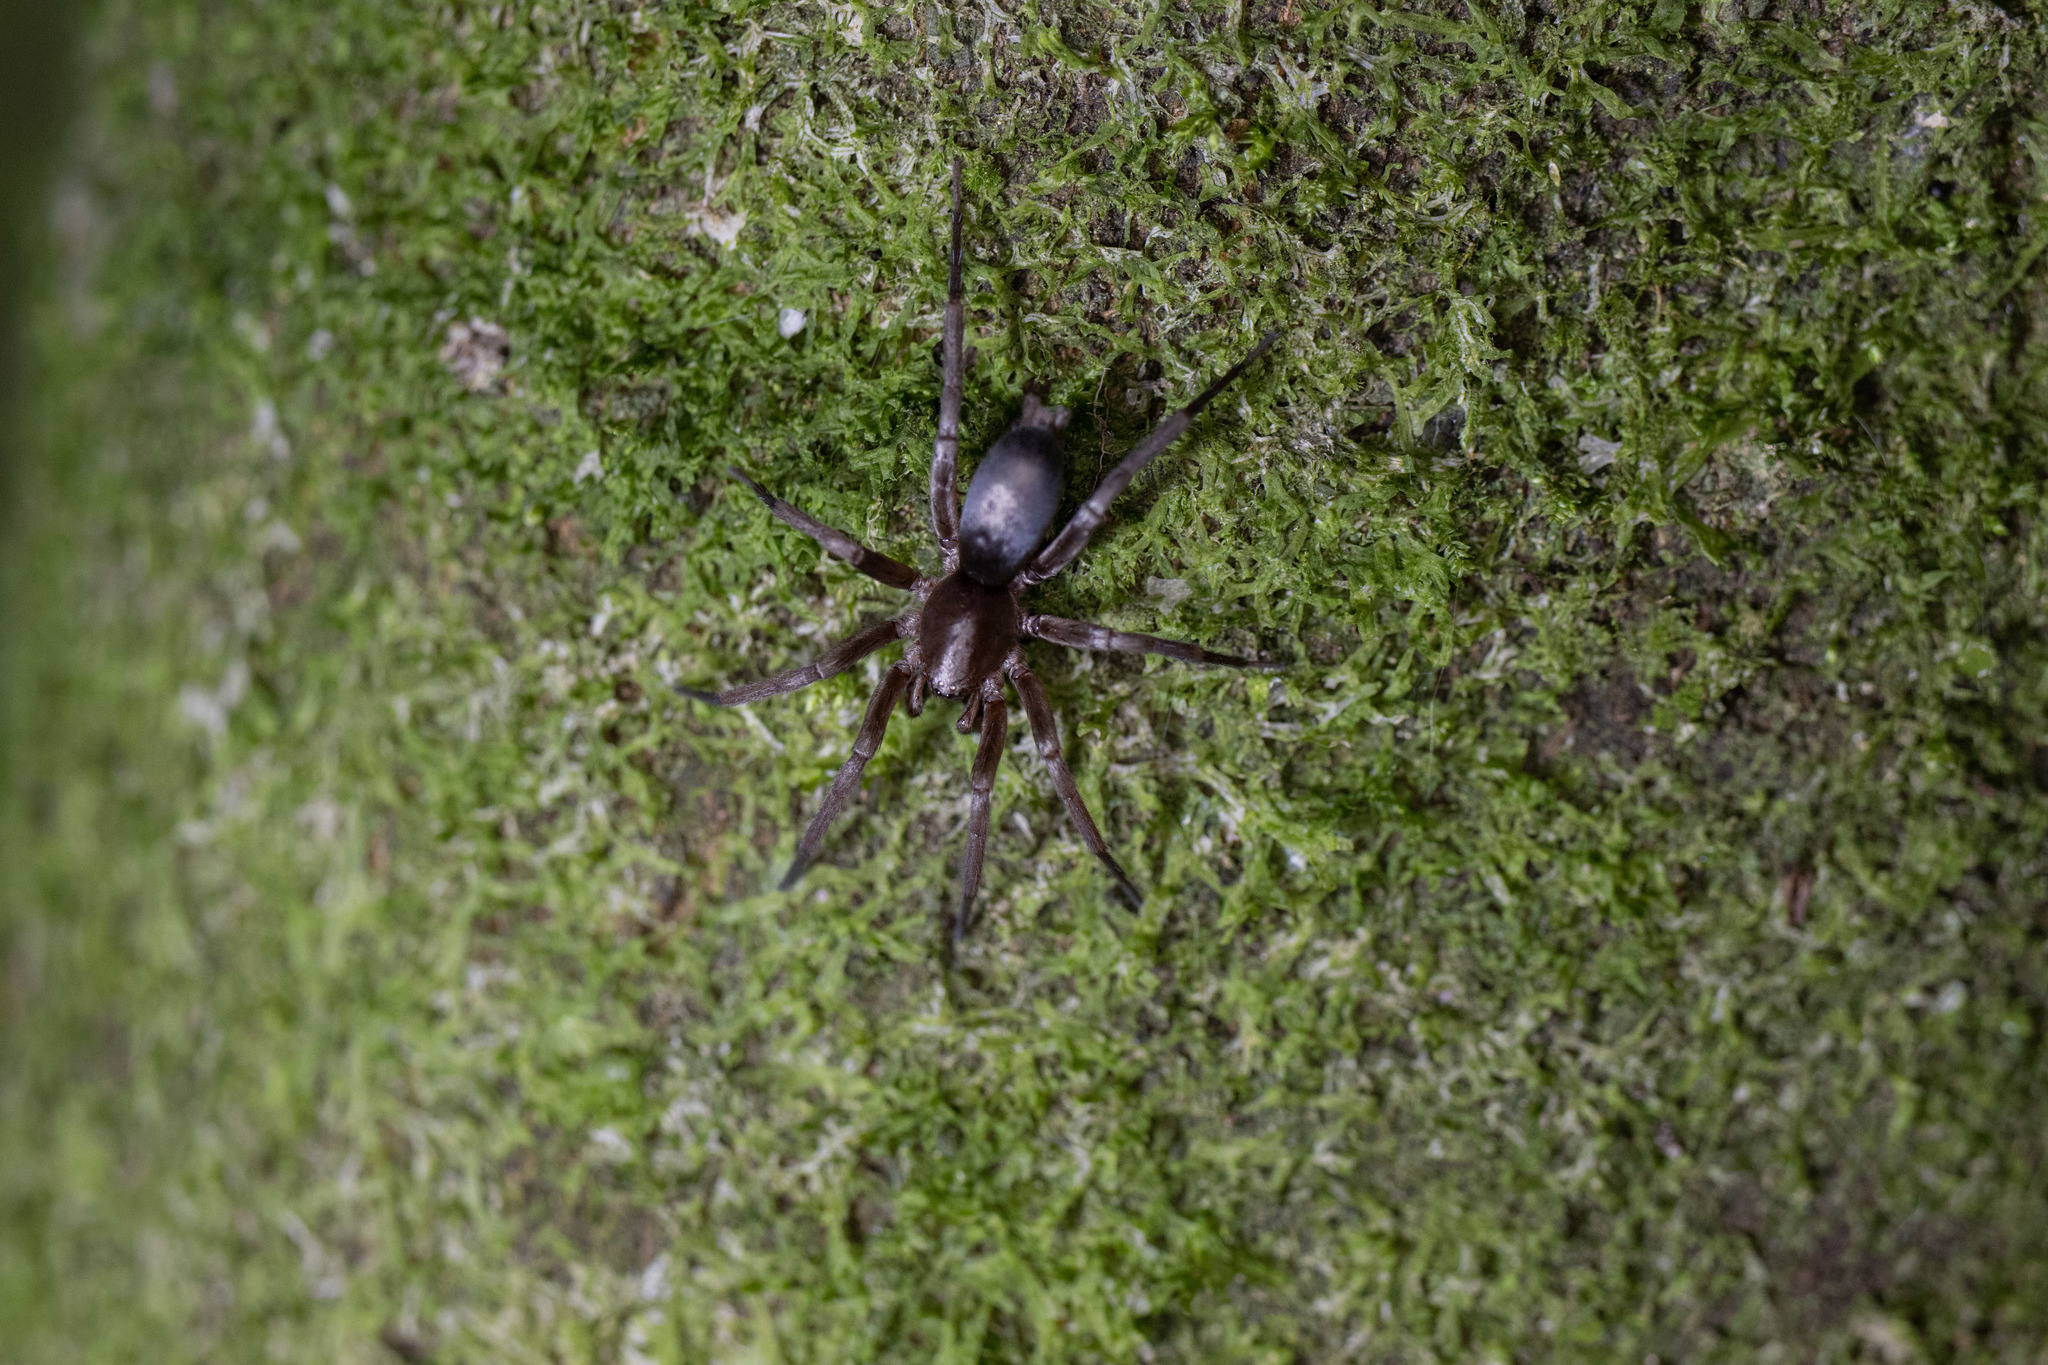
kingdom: Animalia
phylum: Arthropoda
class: Arachnida
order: Araneae
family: Gnaphosidae
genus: Hypodrassodes
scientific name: Hypodrassodes maoricus
